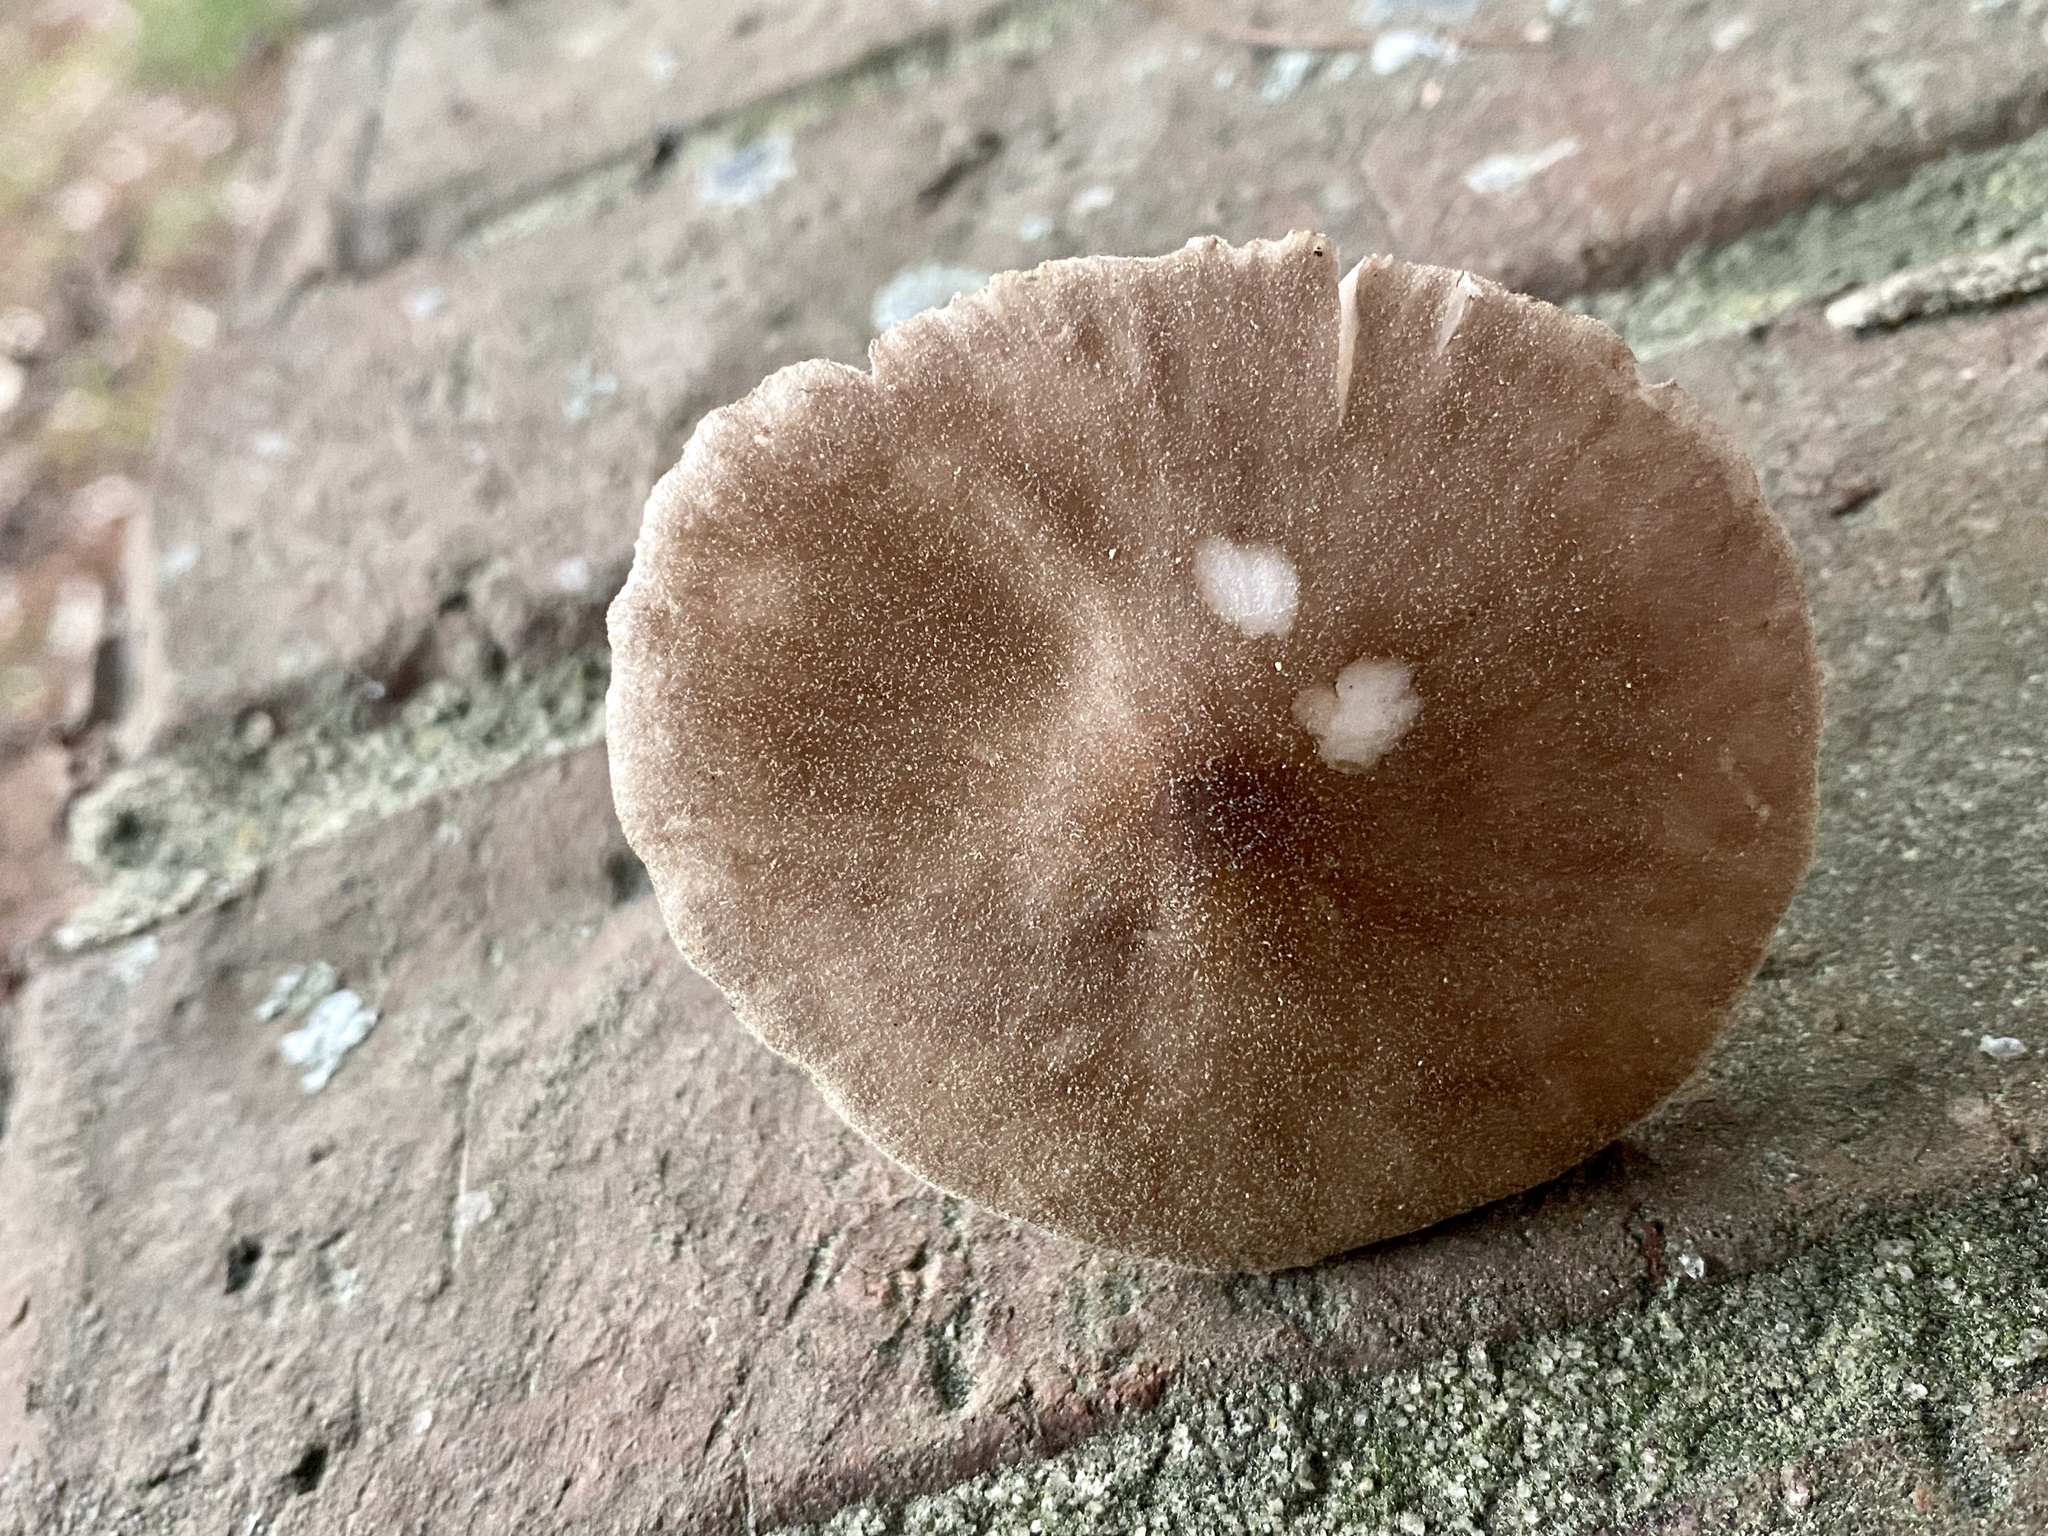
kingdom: Fungi
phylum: Basidiomycota
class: Agaricomycetes
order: Agaricales
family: Pluteaceae
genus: Pluteus
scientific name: Pluteus cervinus
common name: Deer shield
